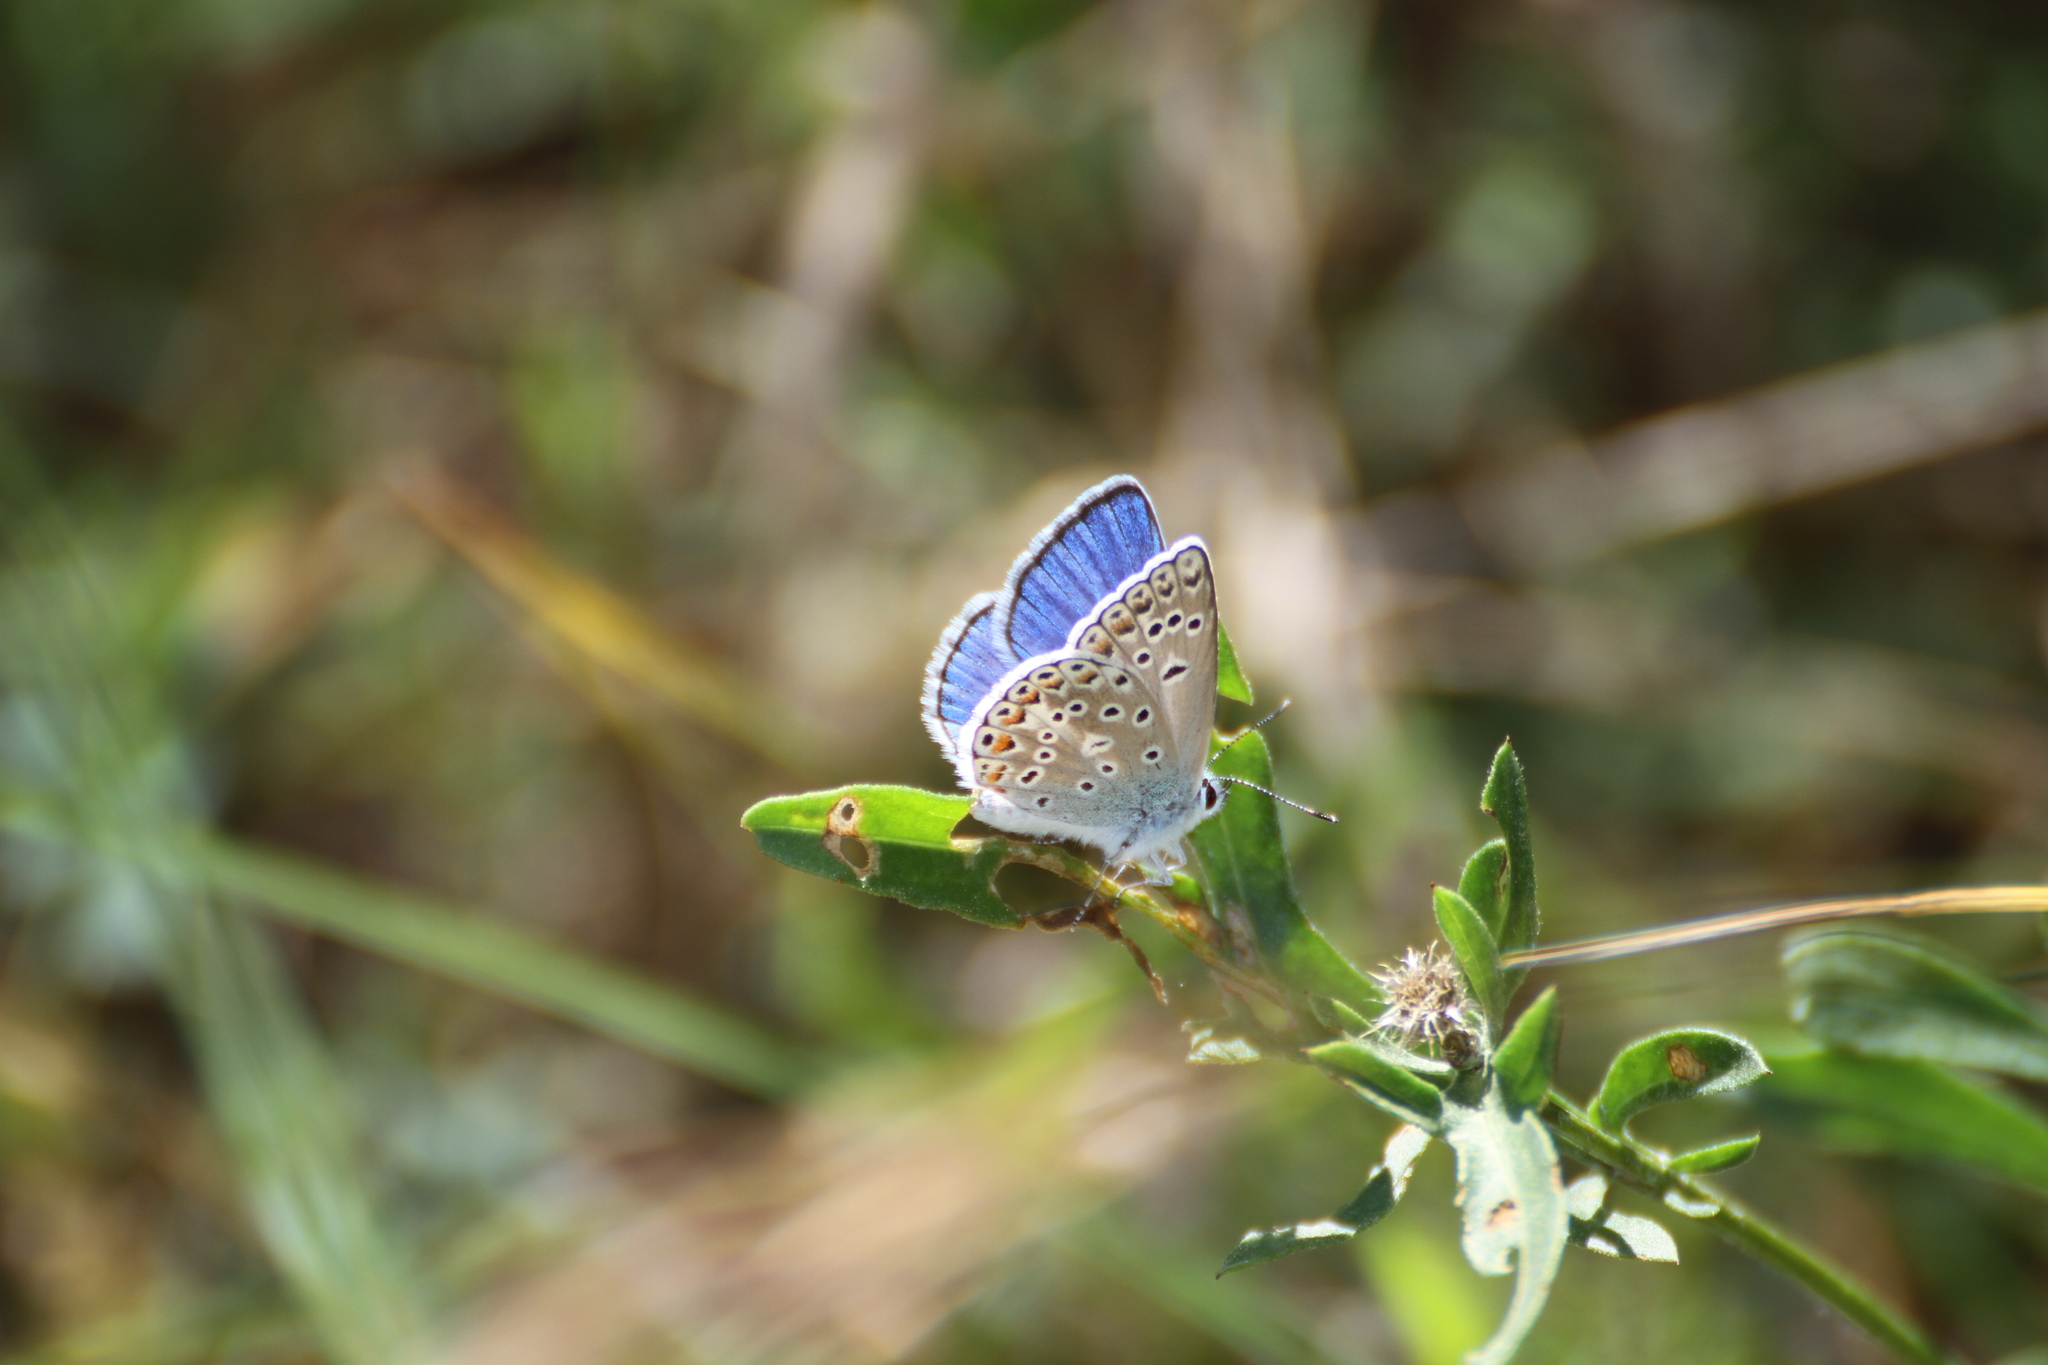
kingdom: Animalia
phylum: Arthropoda
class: Insecta
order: Lepidoptera
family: Lycaenidae
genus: Plebicula
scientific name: Plebicula escheri
